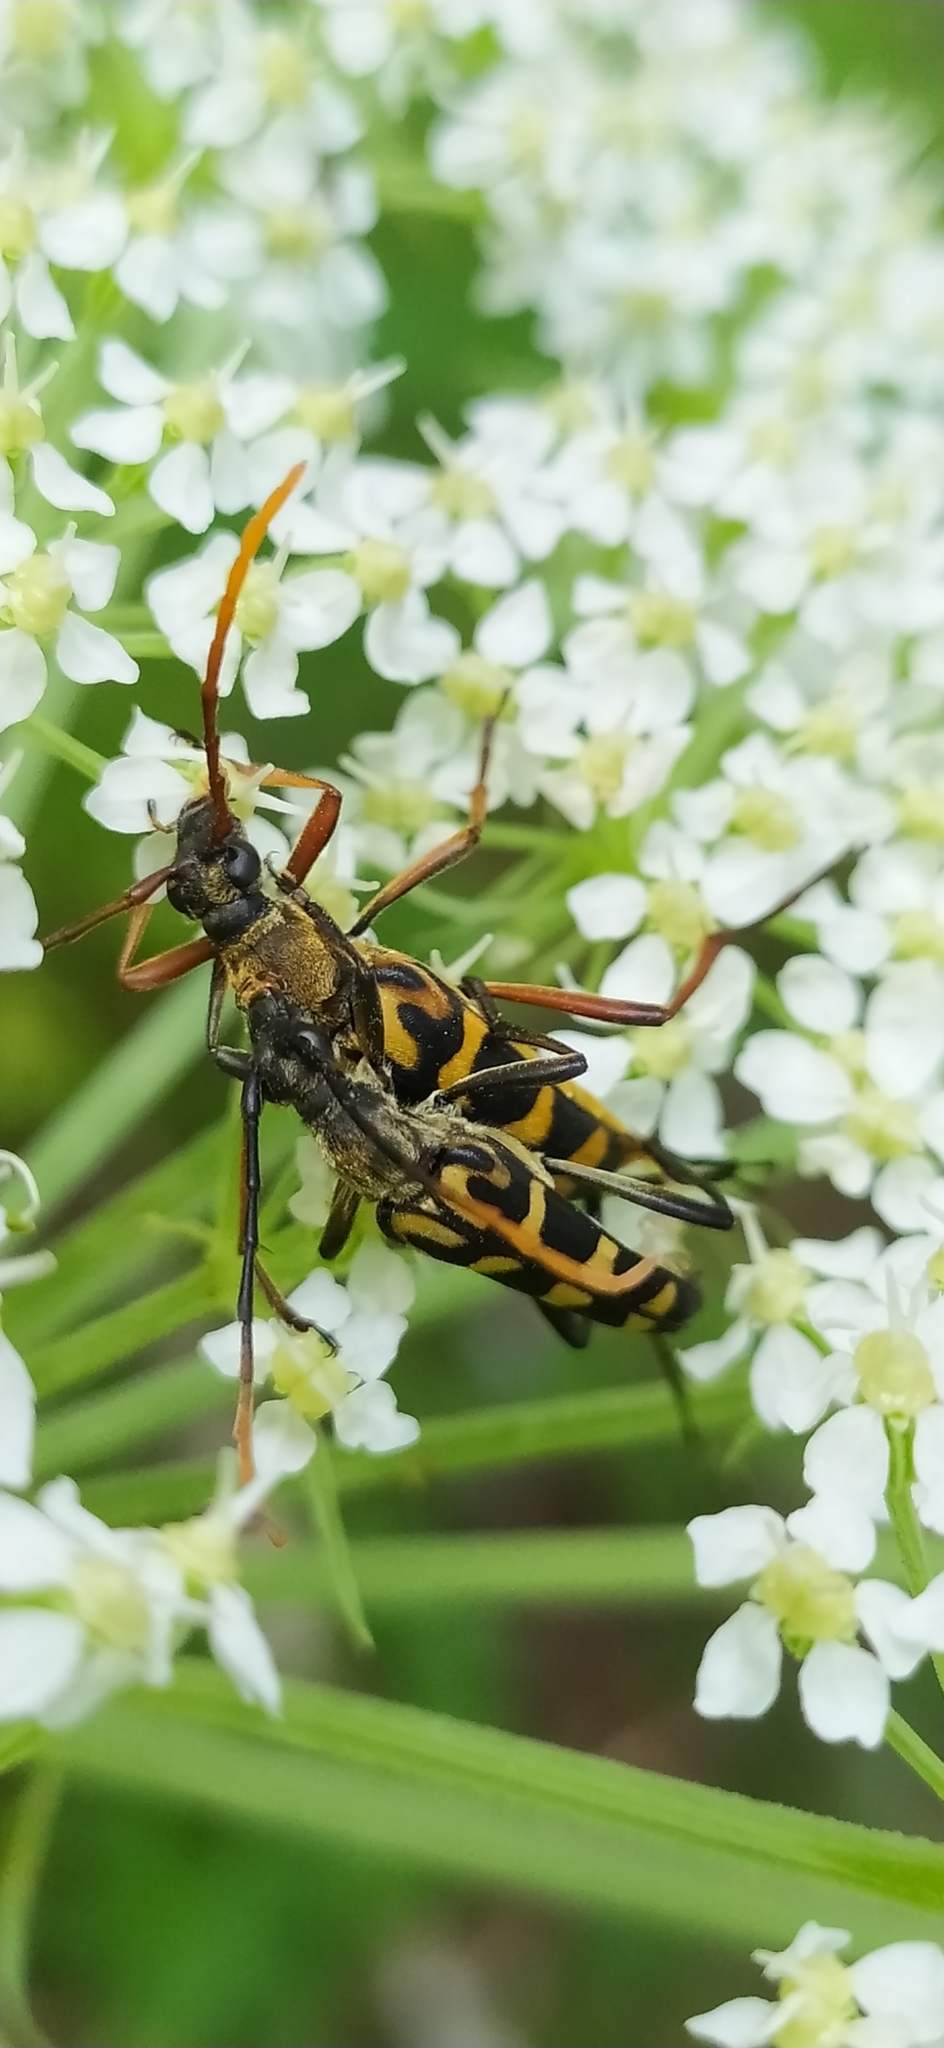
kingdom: Animalia
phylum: Arthropoda
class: Insecta
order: Coleoptera
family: Cerambycidae
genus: Leptura
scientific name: Leptura annularis
